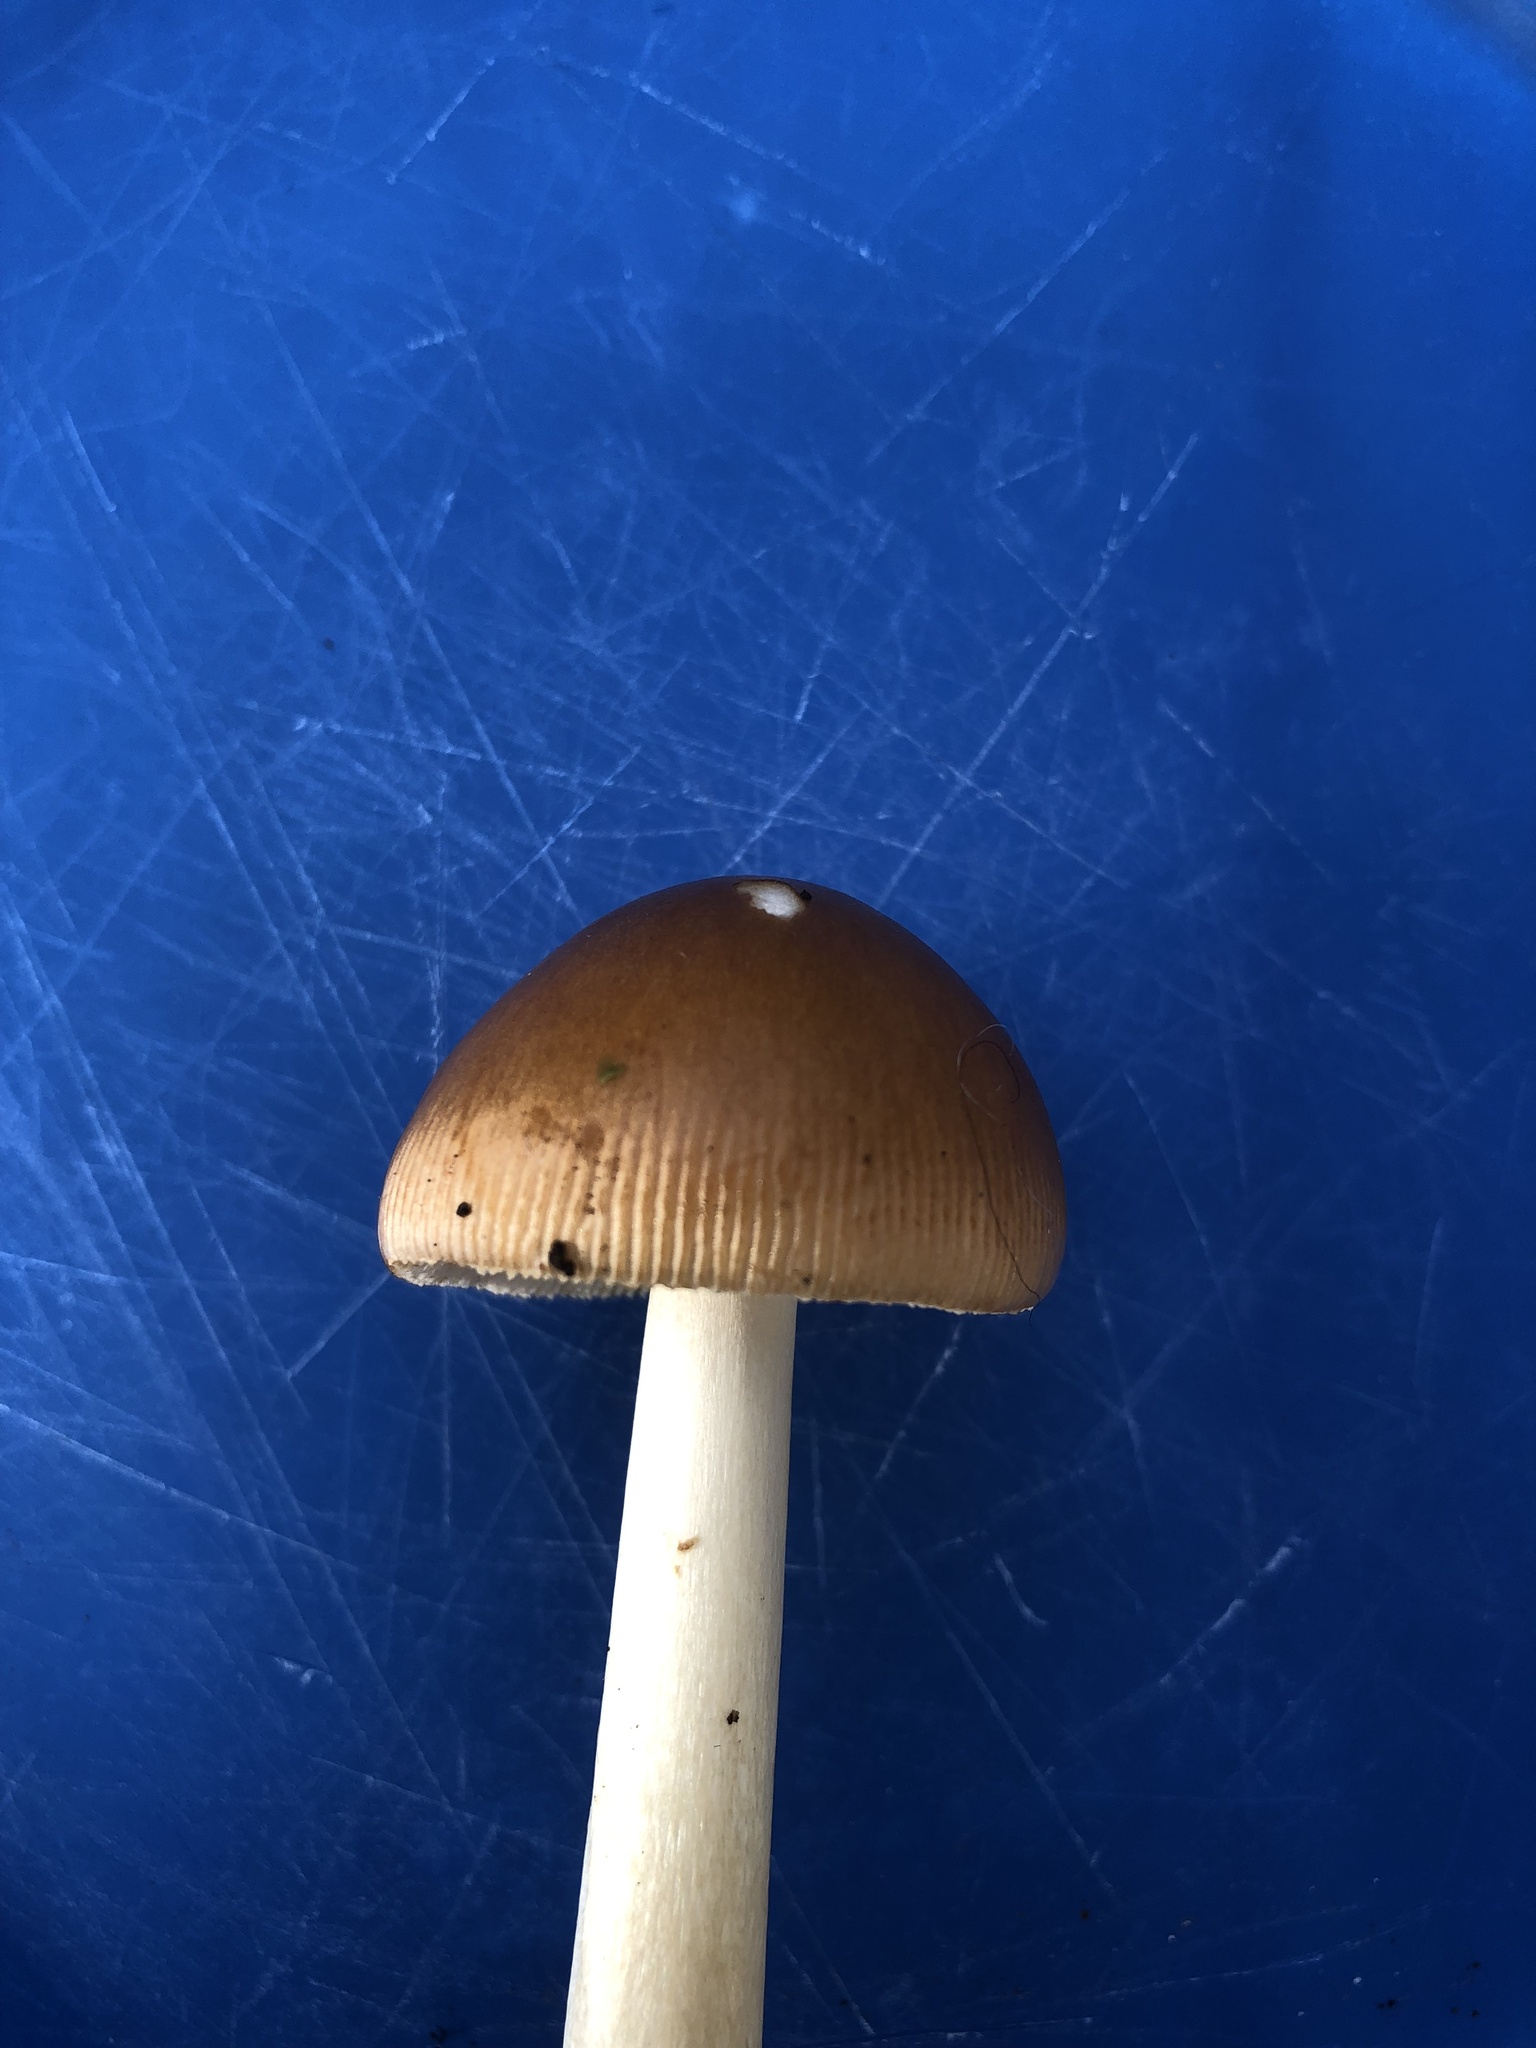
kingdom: Fungi
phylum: Basidiomycota
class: Agaricomycetes
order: Agaricales
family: Amanitaceae
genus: Amanita
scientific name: Amanita fulva
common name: Tawny grisette
